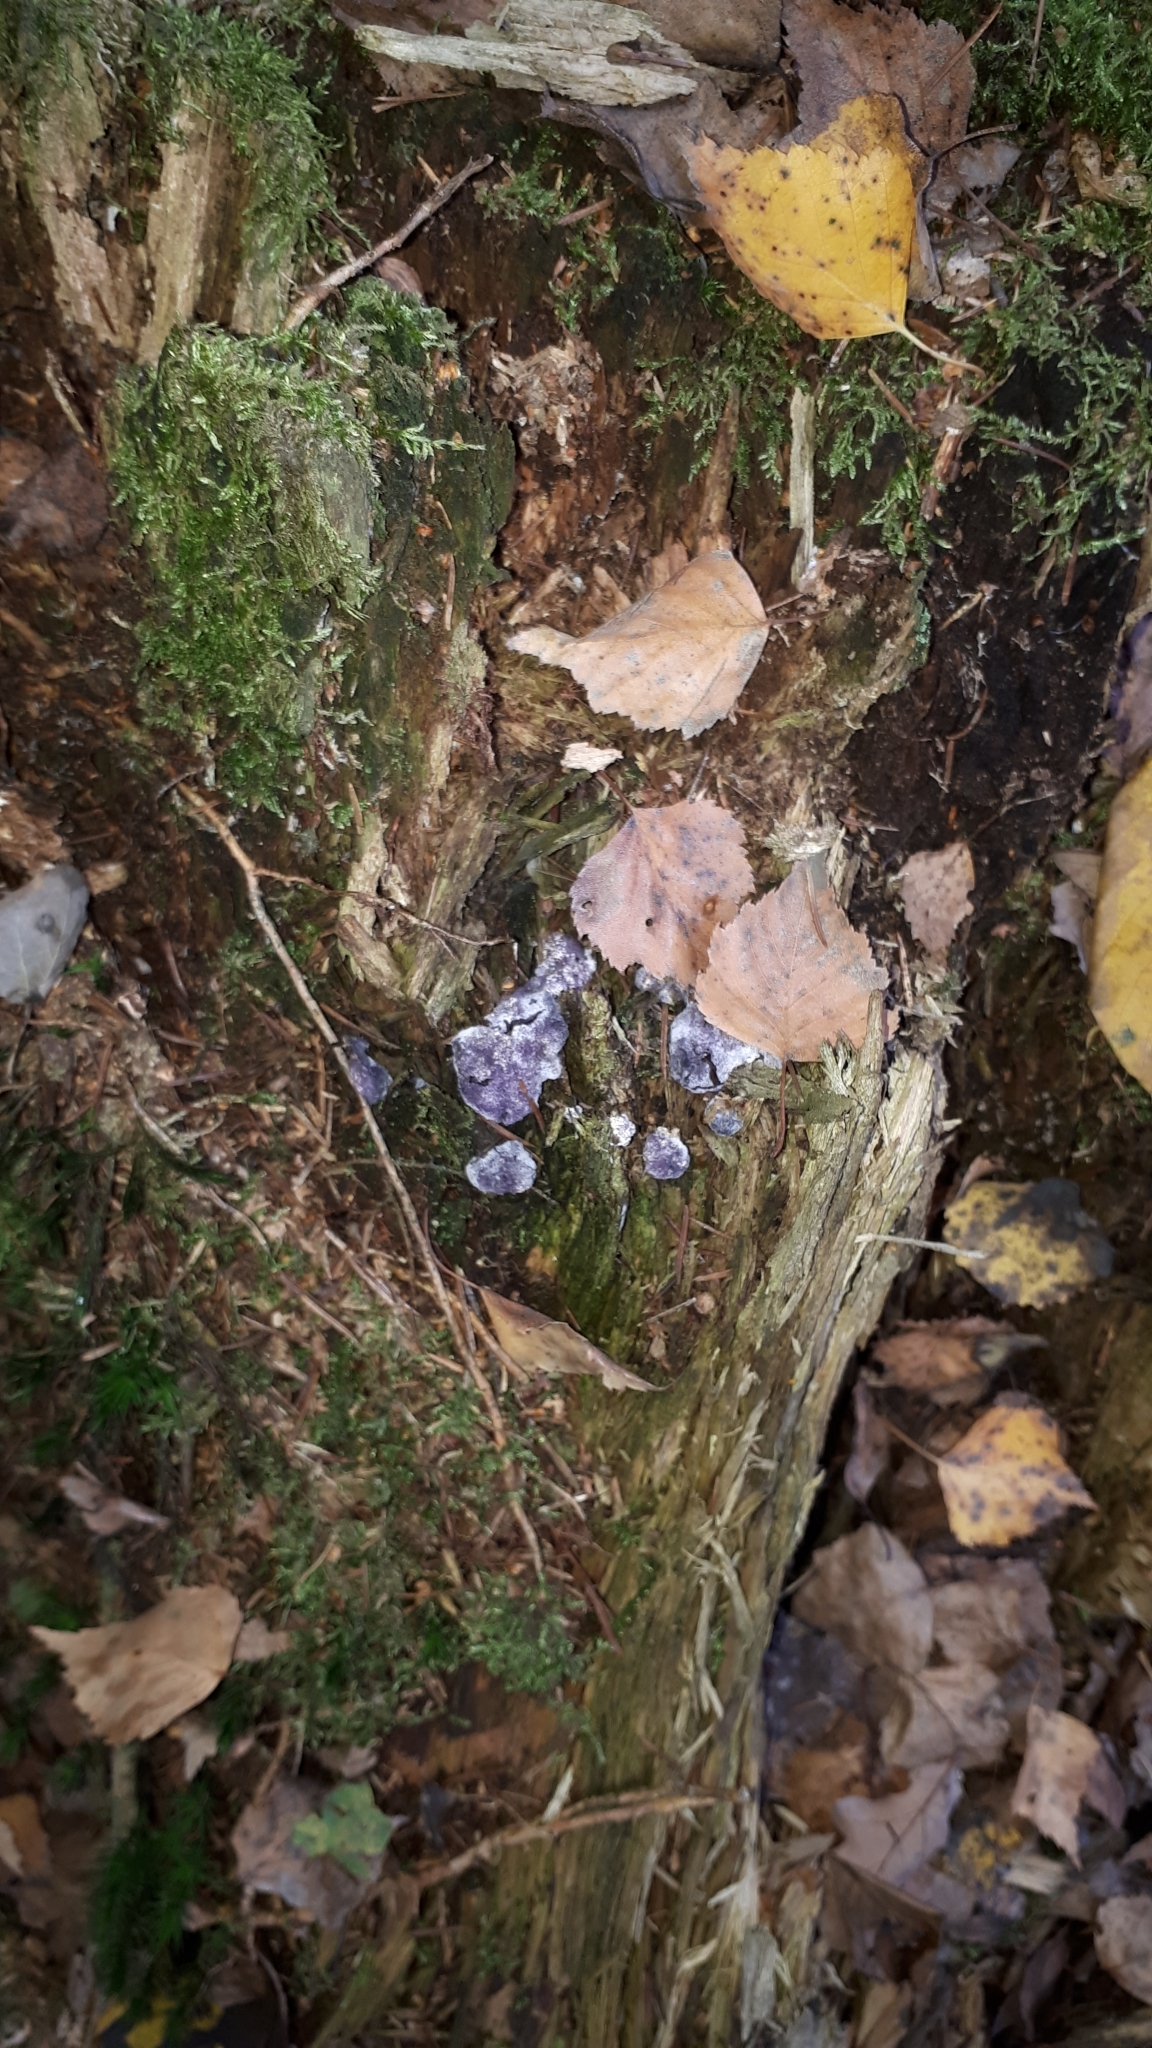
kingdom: Fungi
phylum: Ascomycota
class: Sordariomycetes
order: Hypocreales
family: Bionectriaceae
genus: Nectriopsis
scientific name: Nectriopsis violacea
